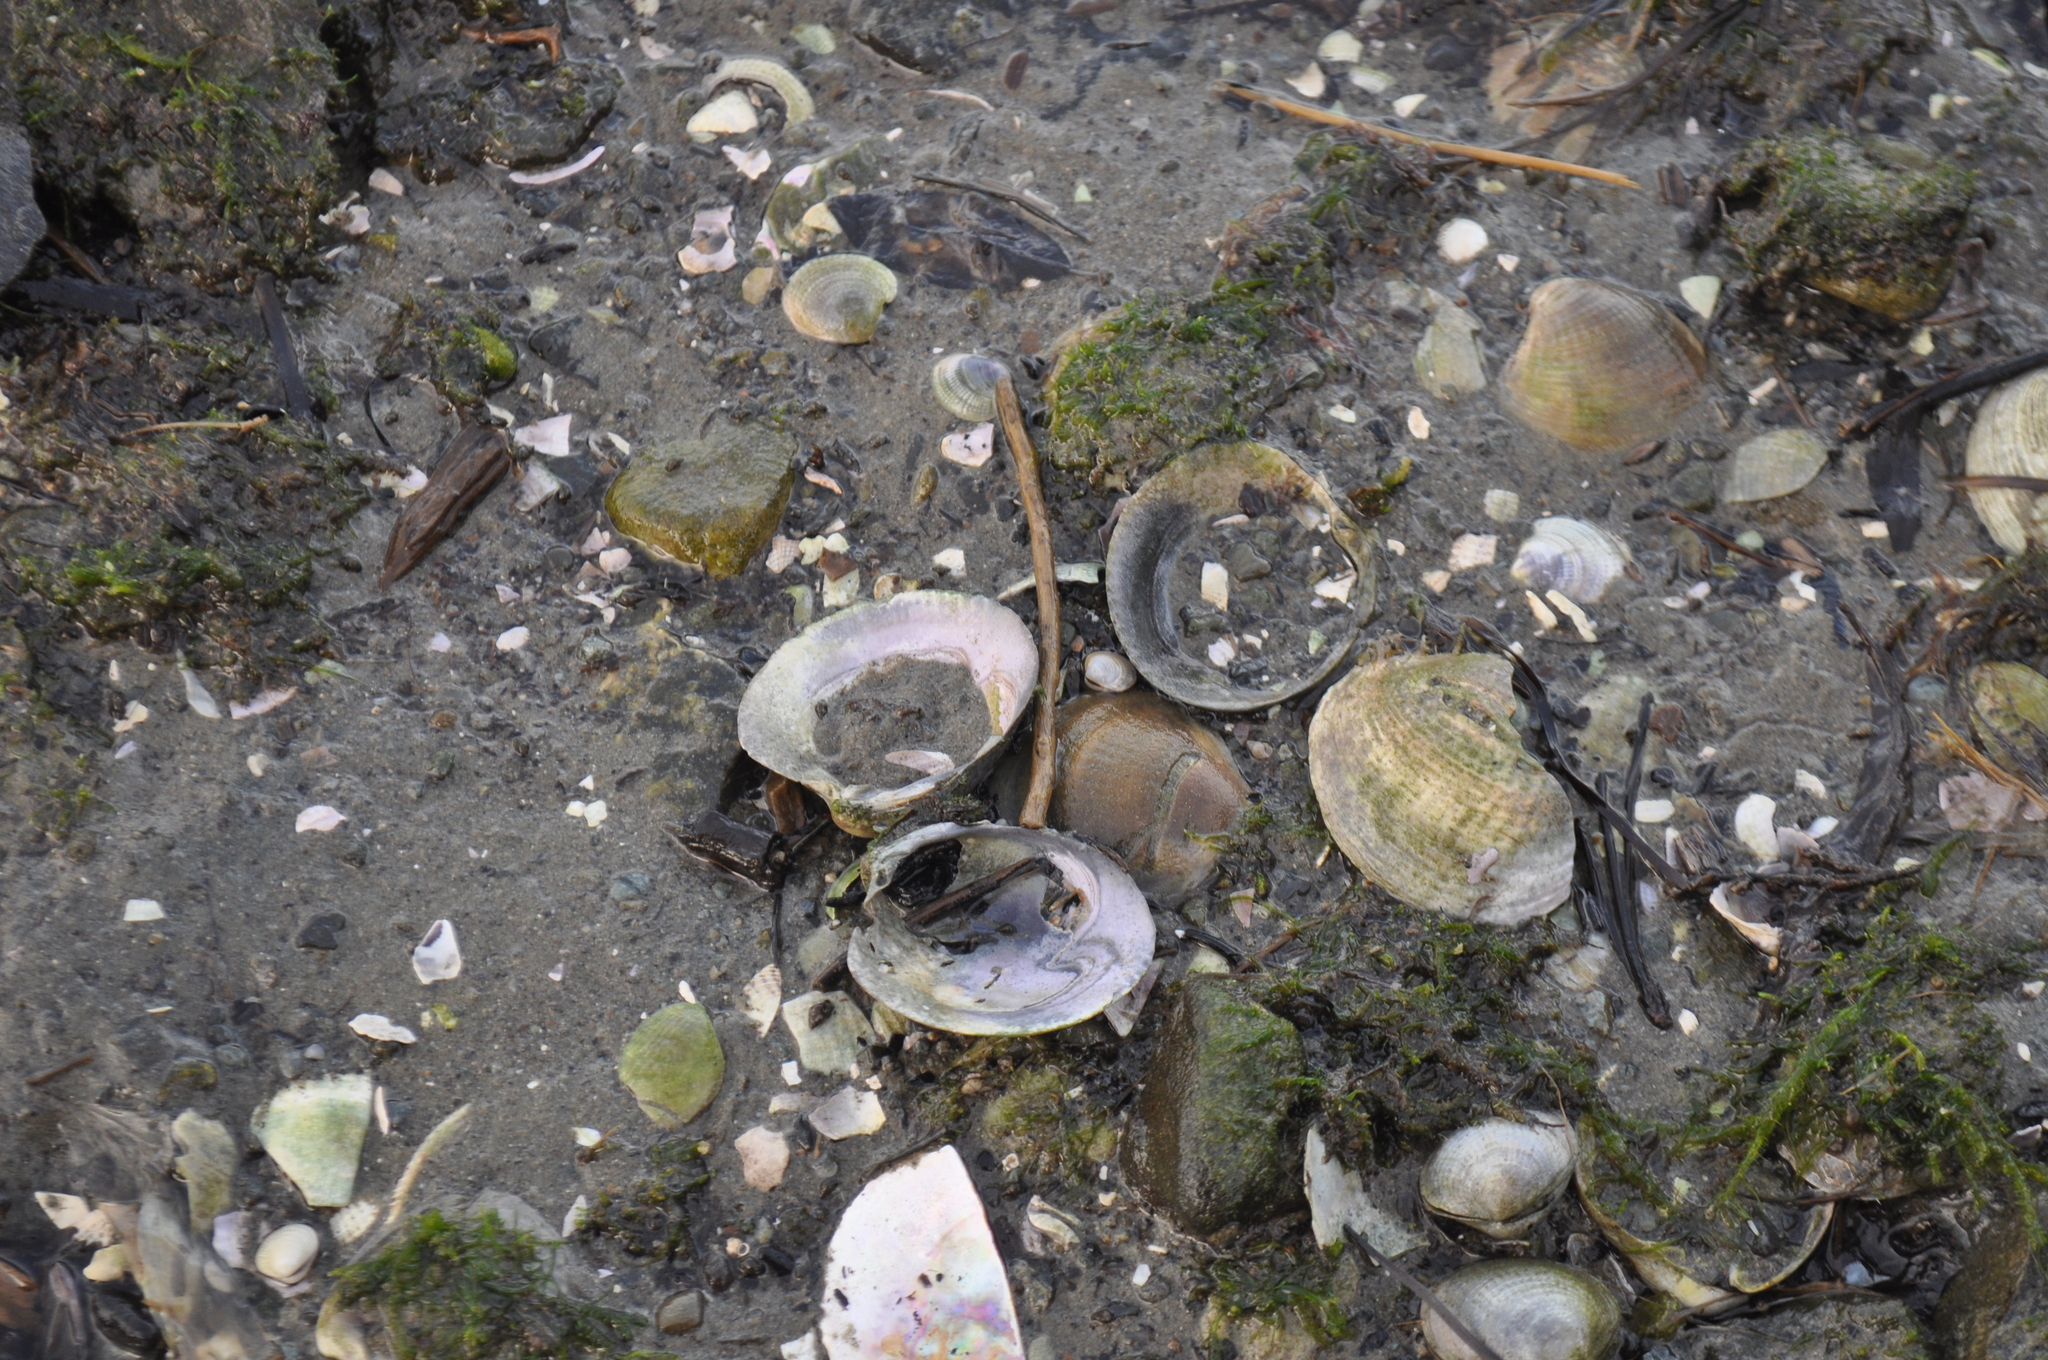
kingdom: Animalia
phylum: Mollusca
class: Bivalvia
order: Venerida
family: Veneridae
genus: Austrovenus
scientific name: Austrovenus stutchburyi
